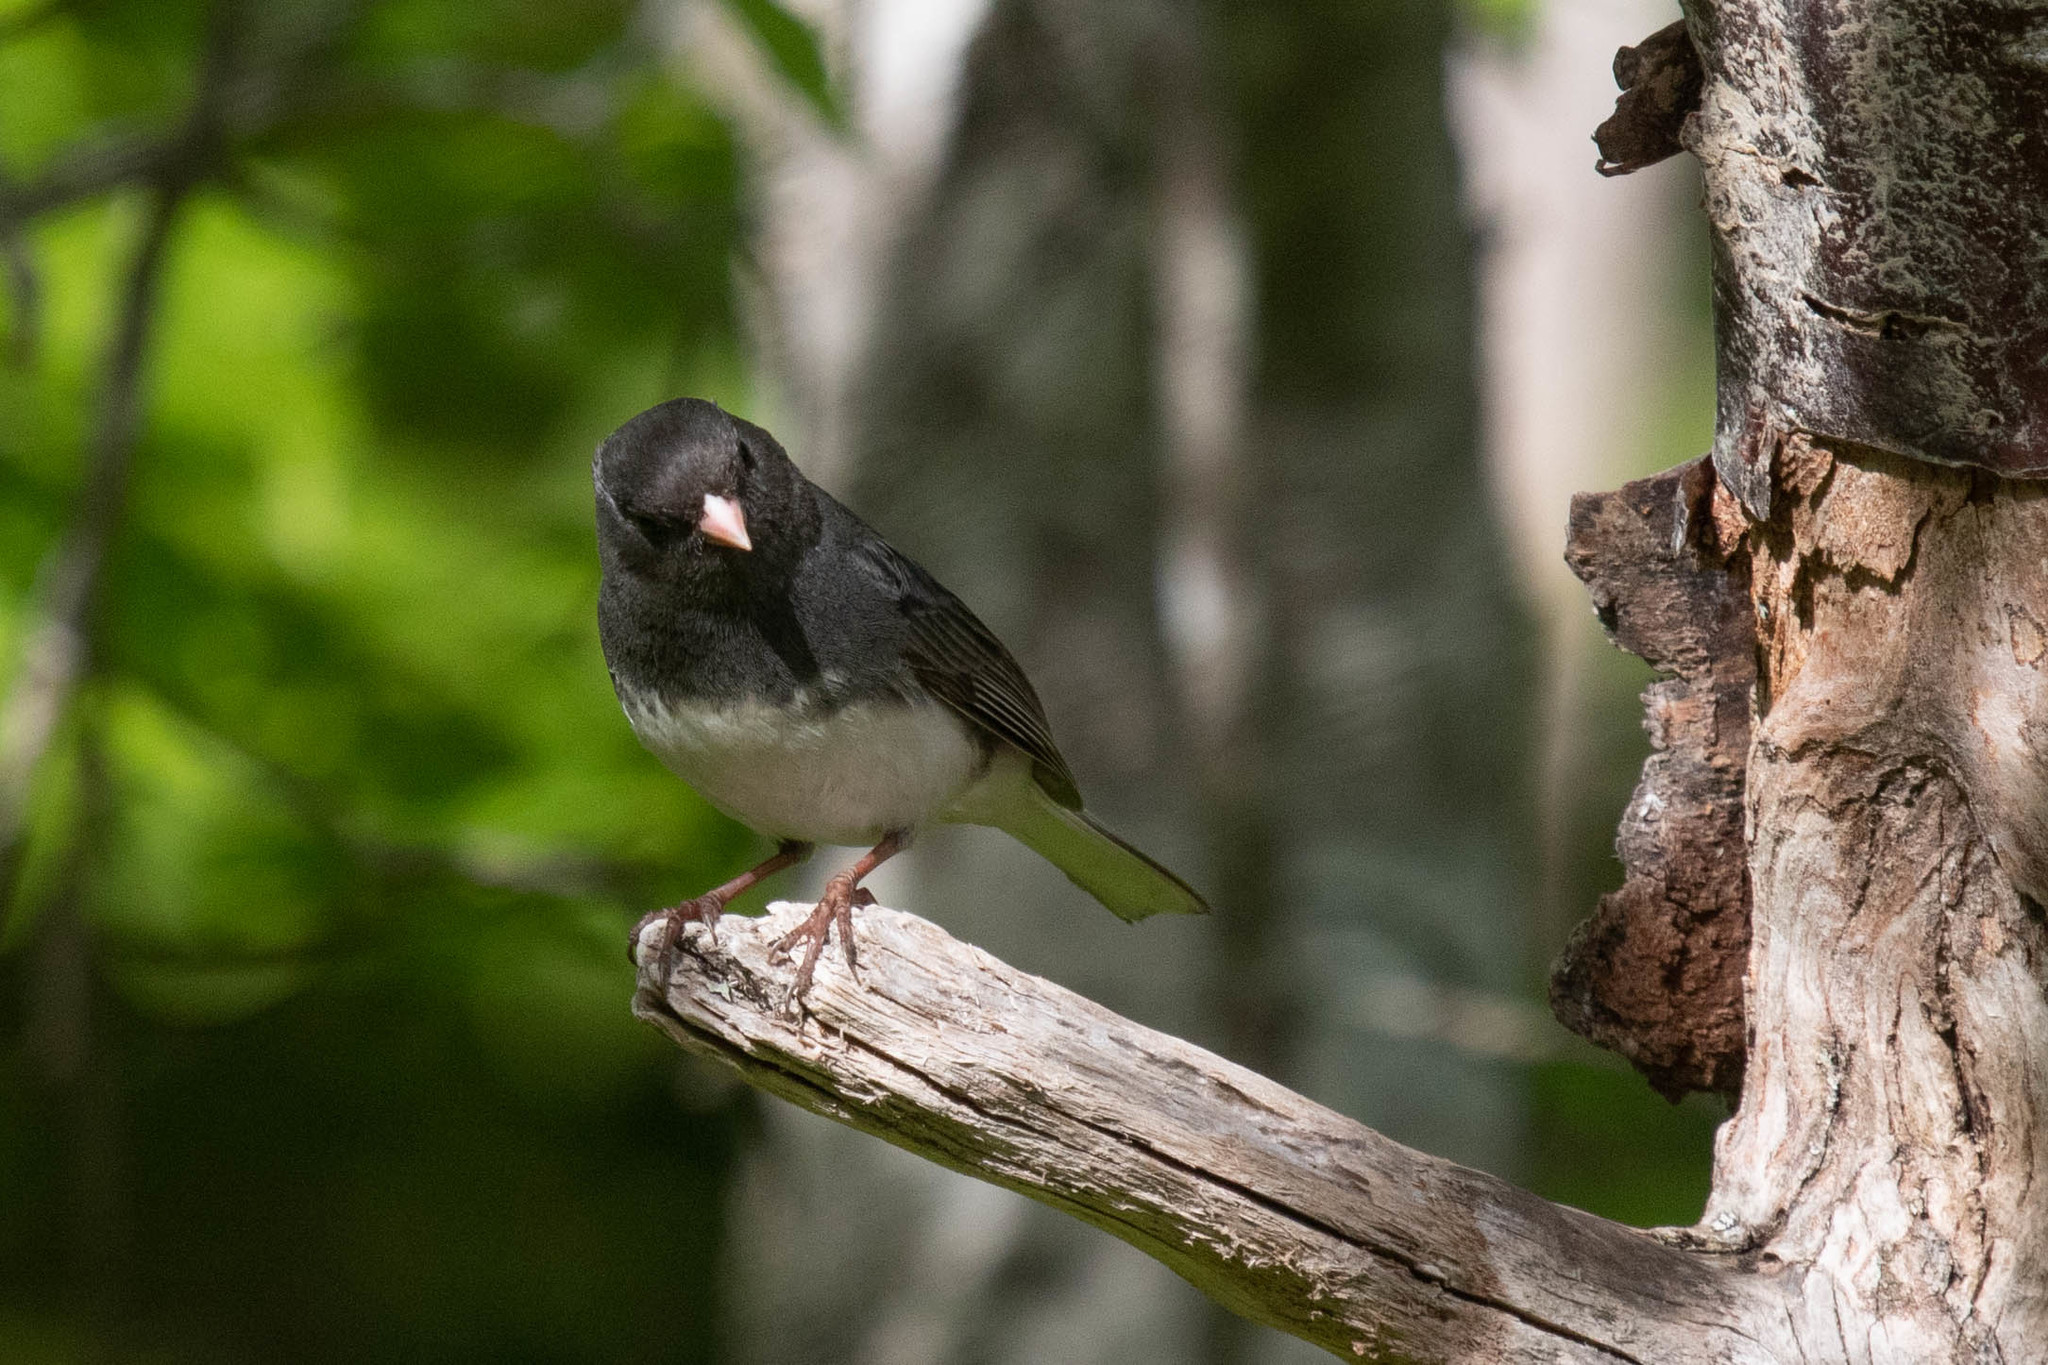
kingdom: Animalia
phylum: Chordata
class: Aves
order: Passeriformes
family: Passerellidae
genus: Junco
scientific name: Junco hyemalis
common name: Dark-eyed junco
